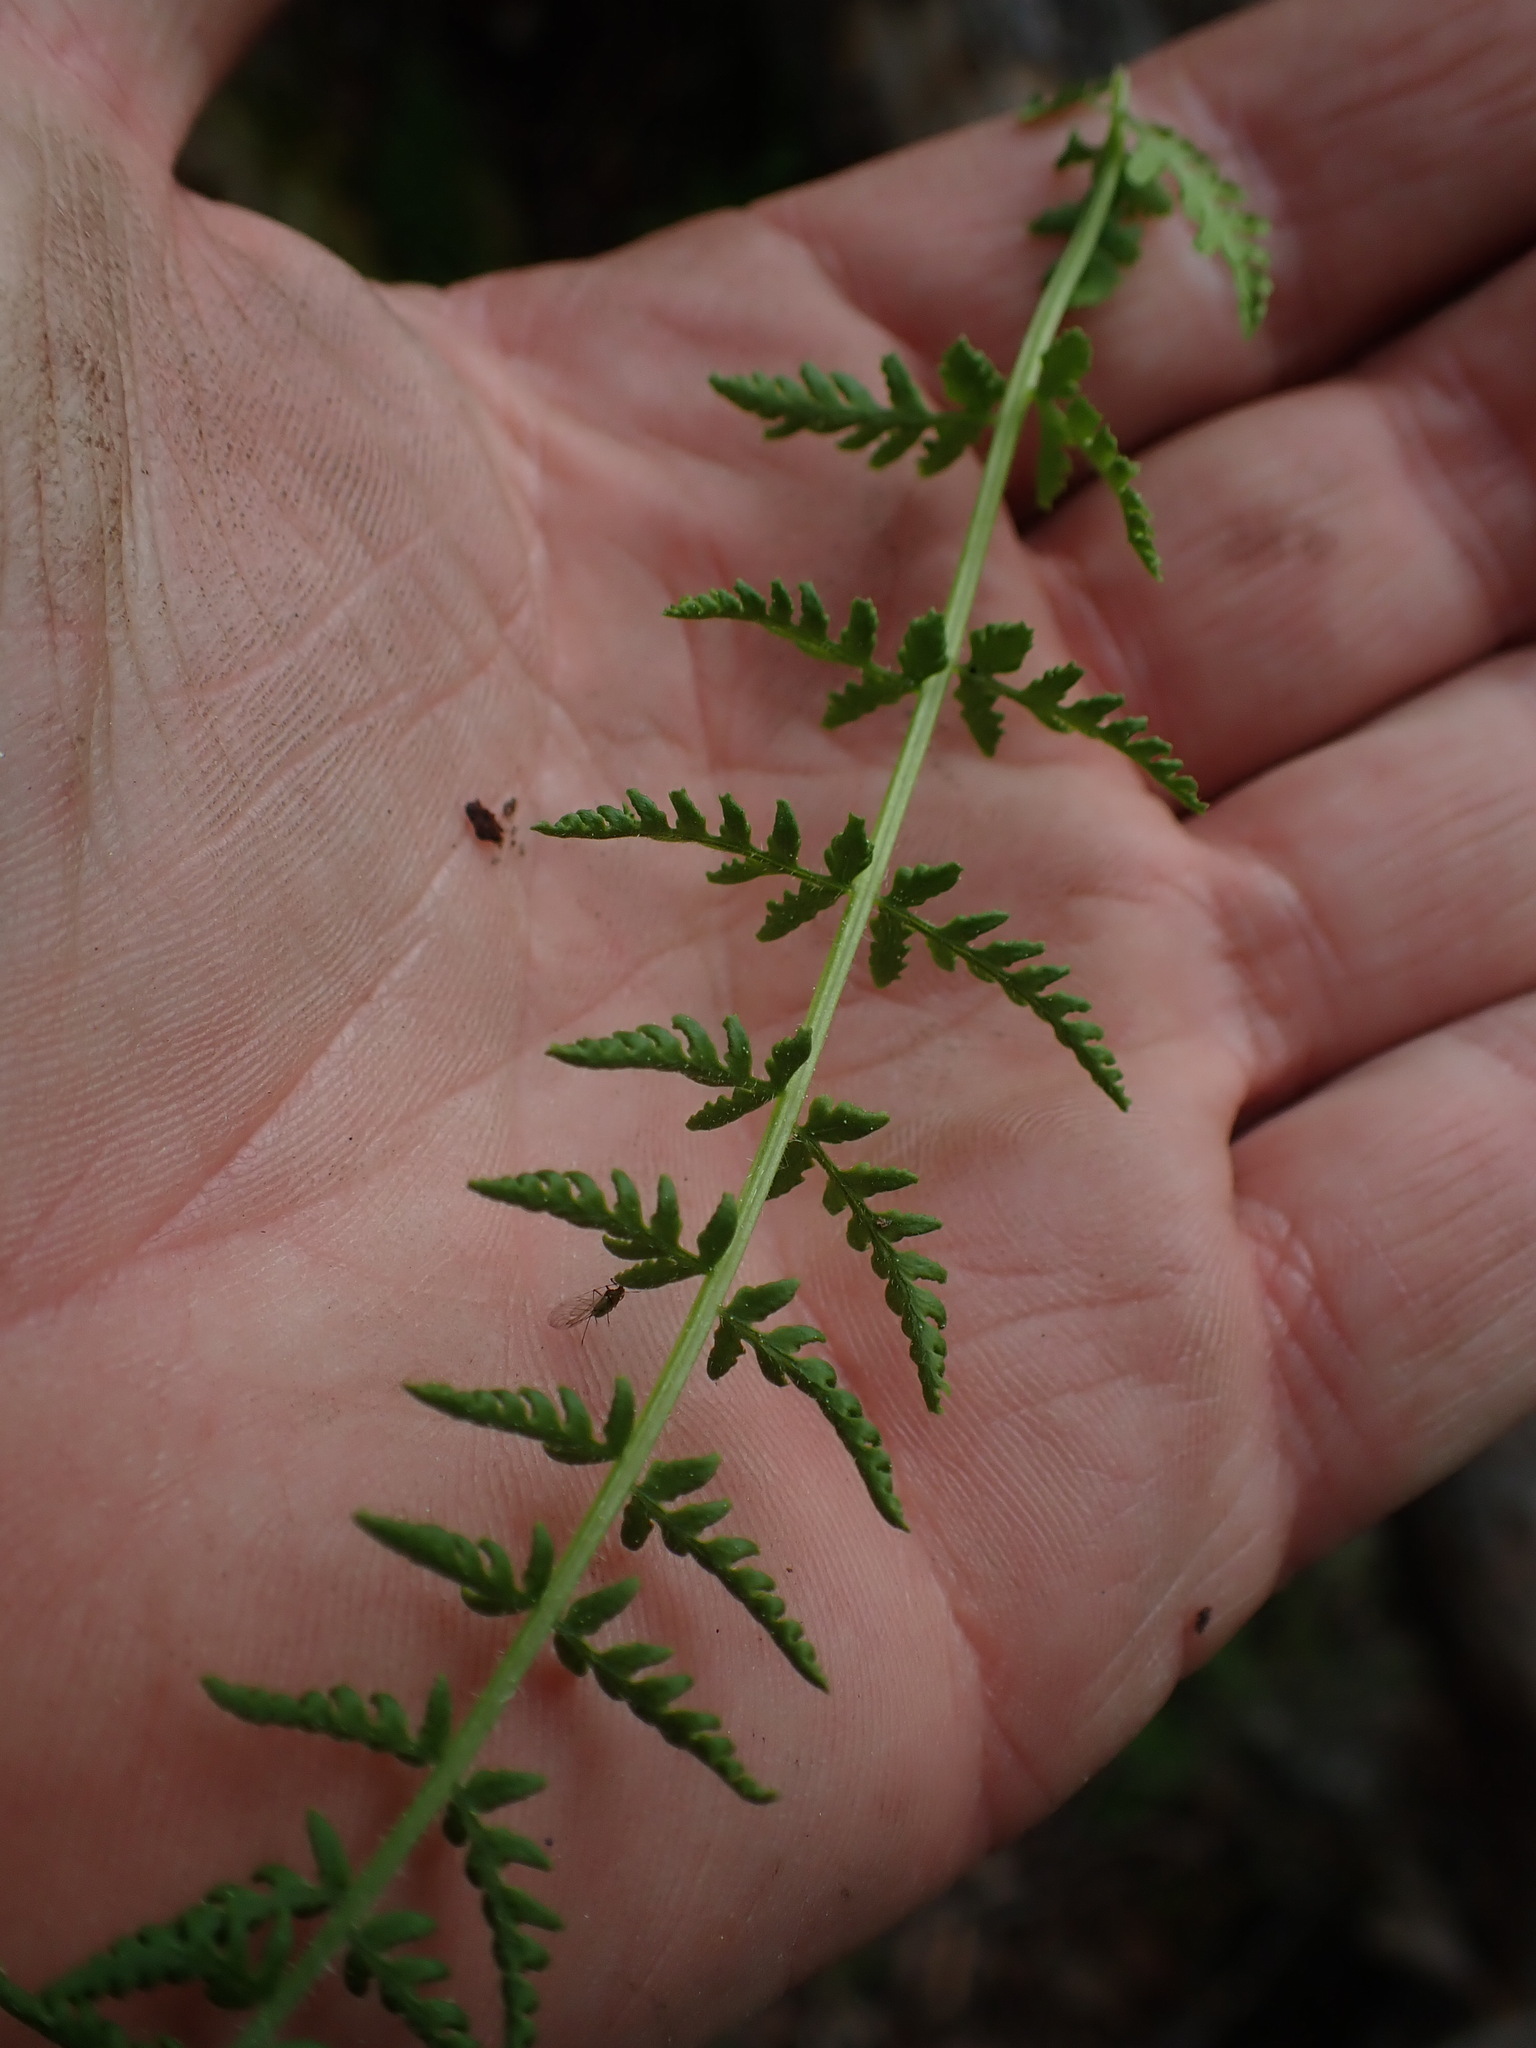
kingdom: Plantae
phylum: Tracheophyta
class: Polypodiopsida
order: Polypodiales
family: Woodsiaceae
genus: Physematium
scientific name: Physematium scopulinum
